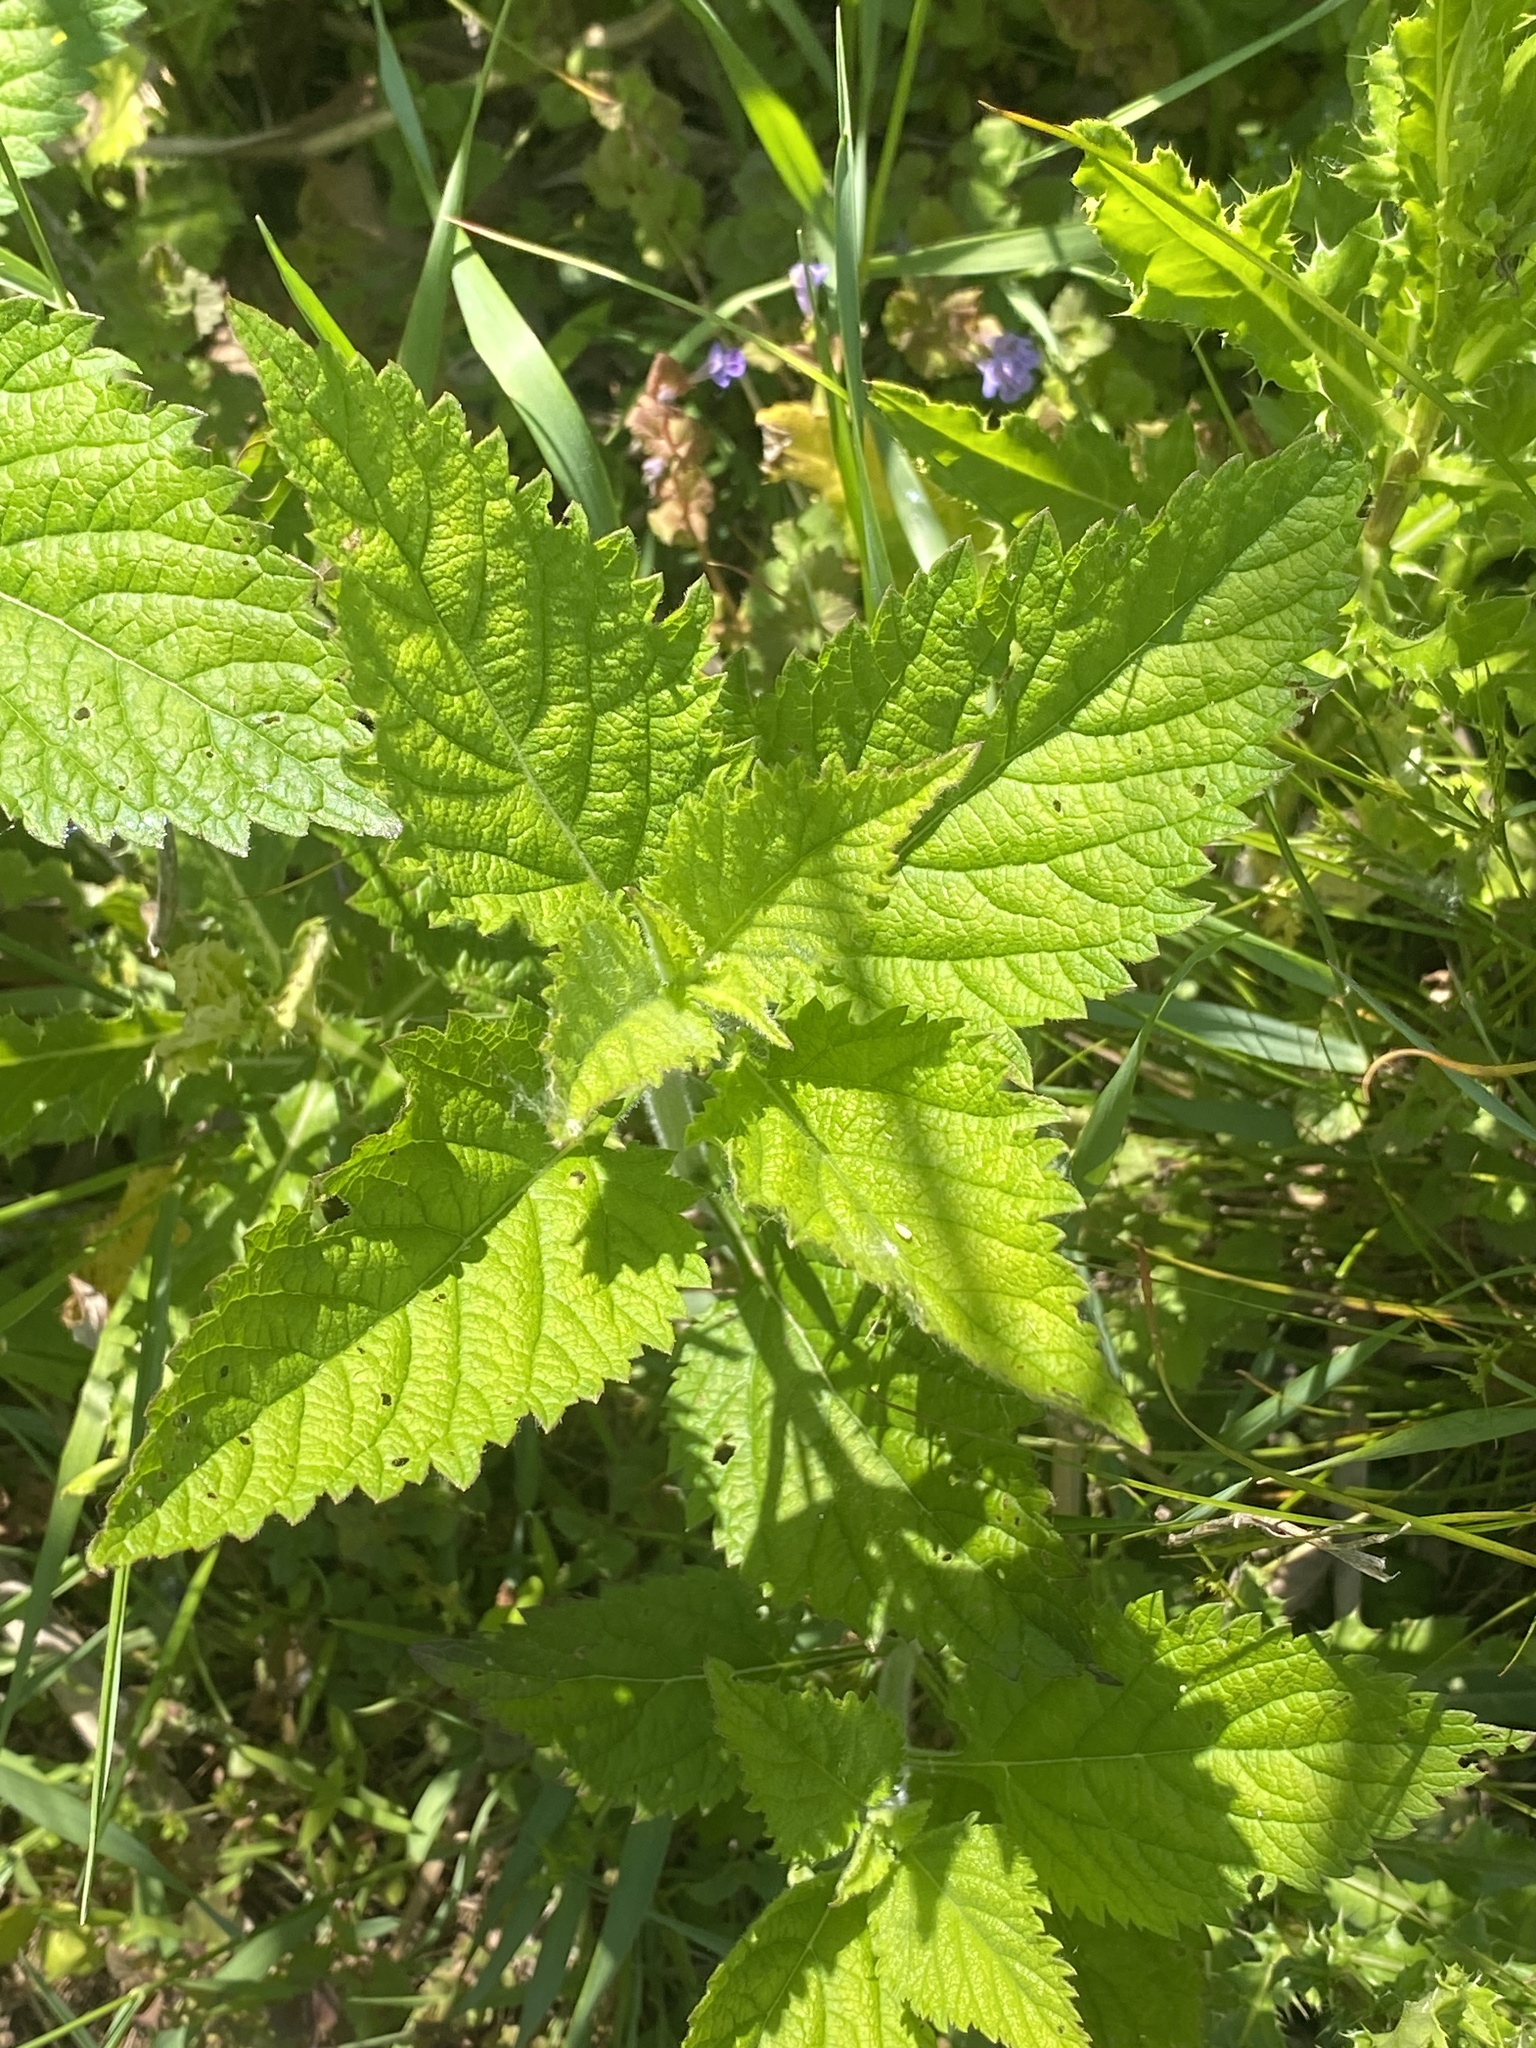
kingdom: Plantae
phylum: Tracheophyta
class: Magnoliopsida
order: Lamiales
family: Verbenaceae
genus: Verbena
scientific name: Verbena urticifolia
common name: Nettle-leaved vervain
